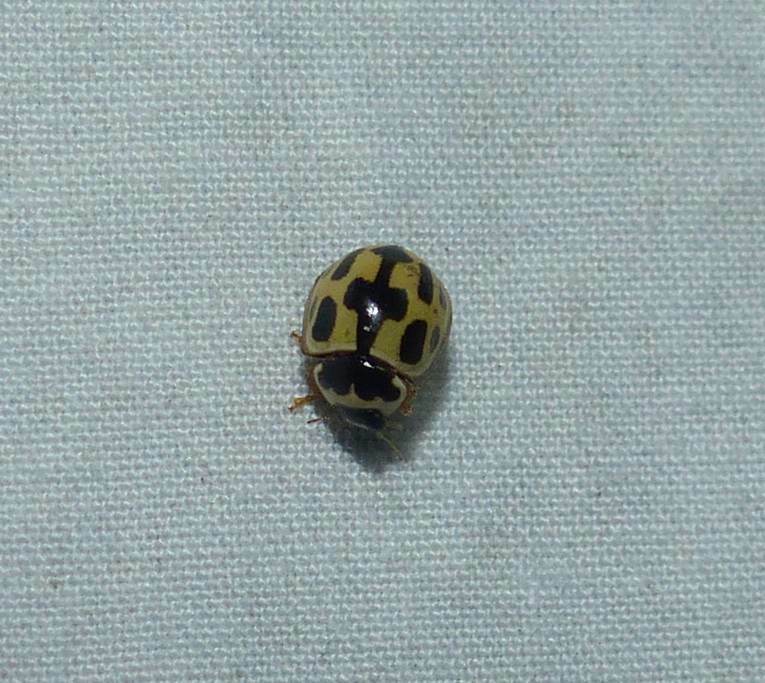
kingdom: Animalia
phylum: Arthropoda
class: Insecta
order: Coleoptera
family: Coccinellidae
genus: Propylaea
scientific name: Propylaea quatuordecimpunctata
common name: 14-spotted ladybird beetle
